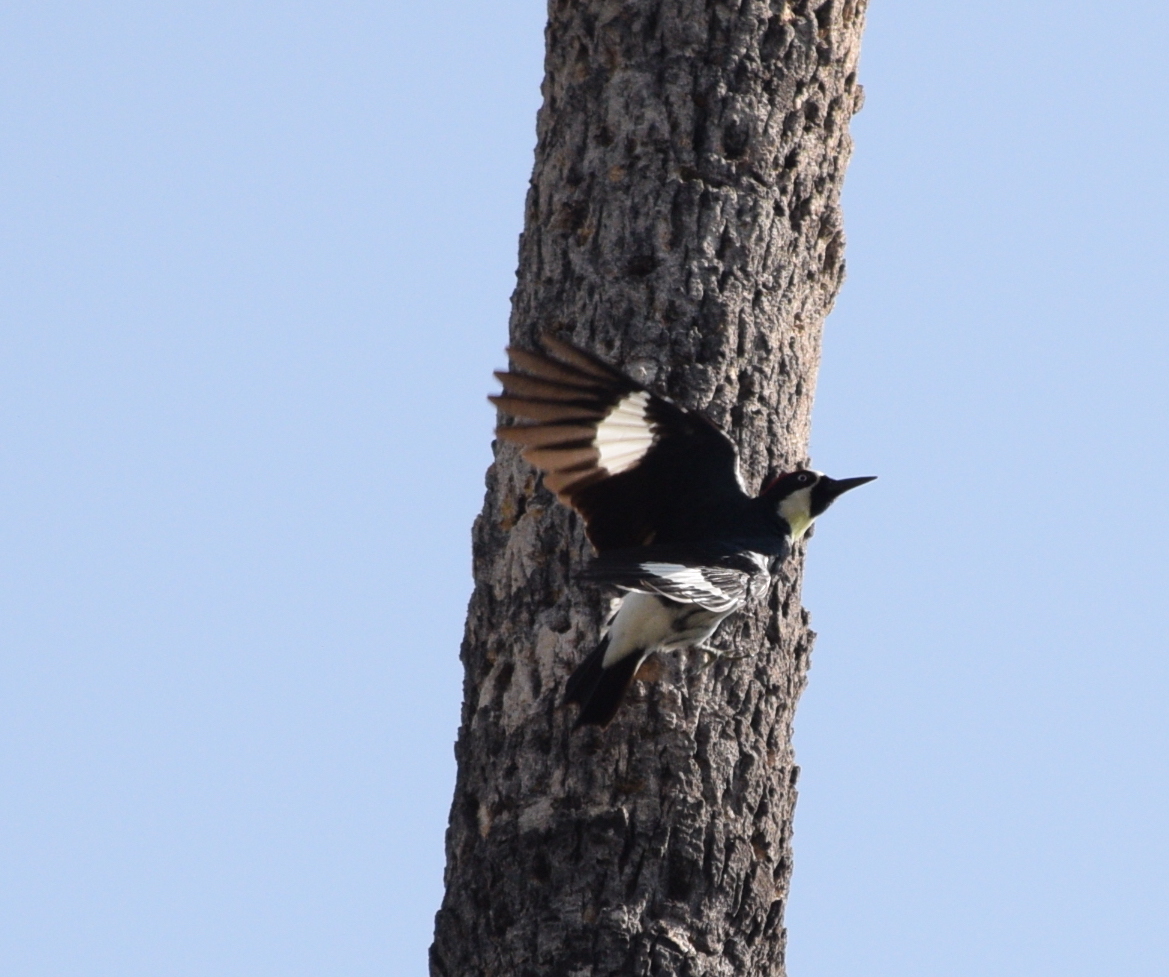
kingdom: Animalia
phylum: Chordata
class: Aves
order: Piciformes
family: Picidae
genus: Melanerpes
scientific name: Melanerpes formicivorus
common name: Acorn woodpecker
